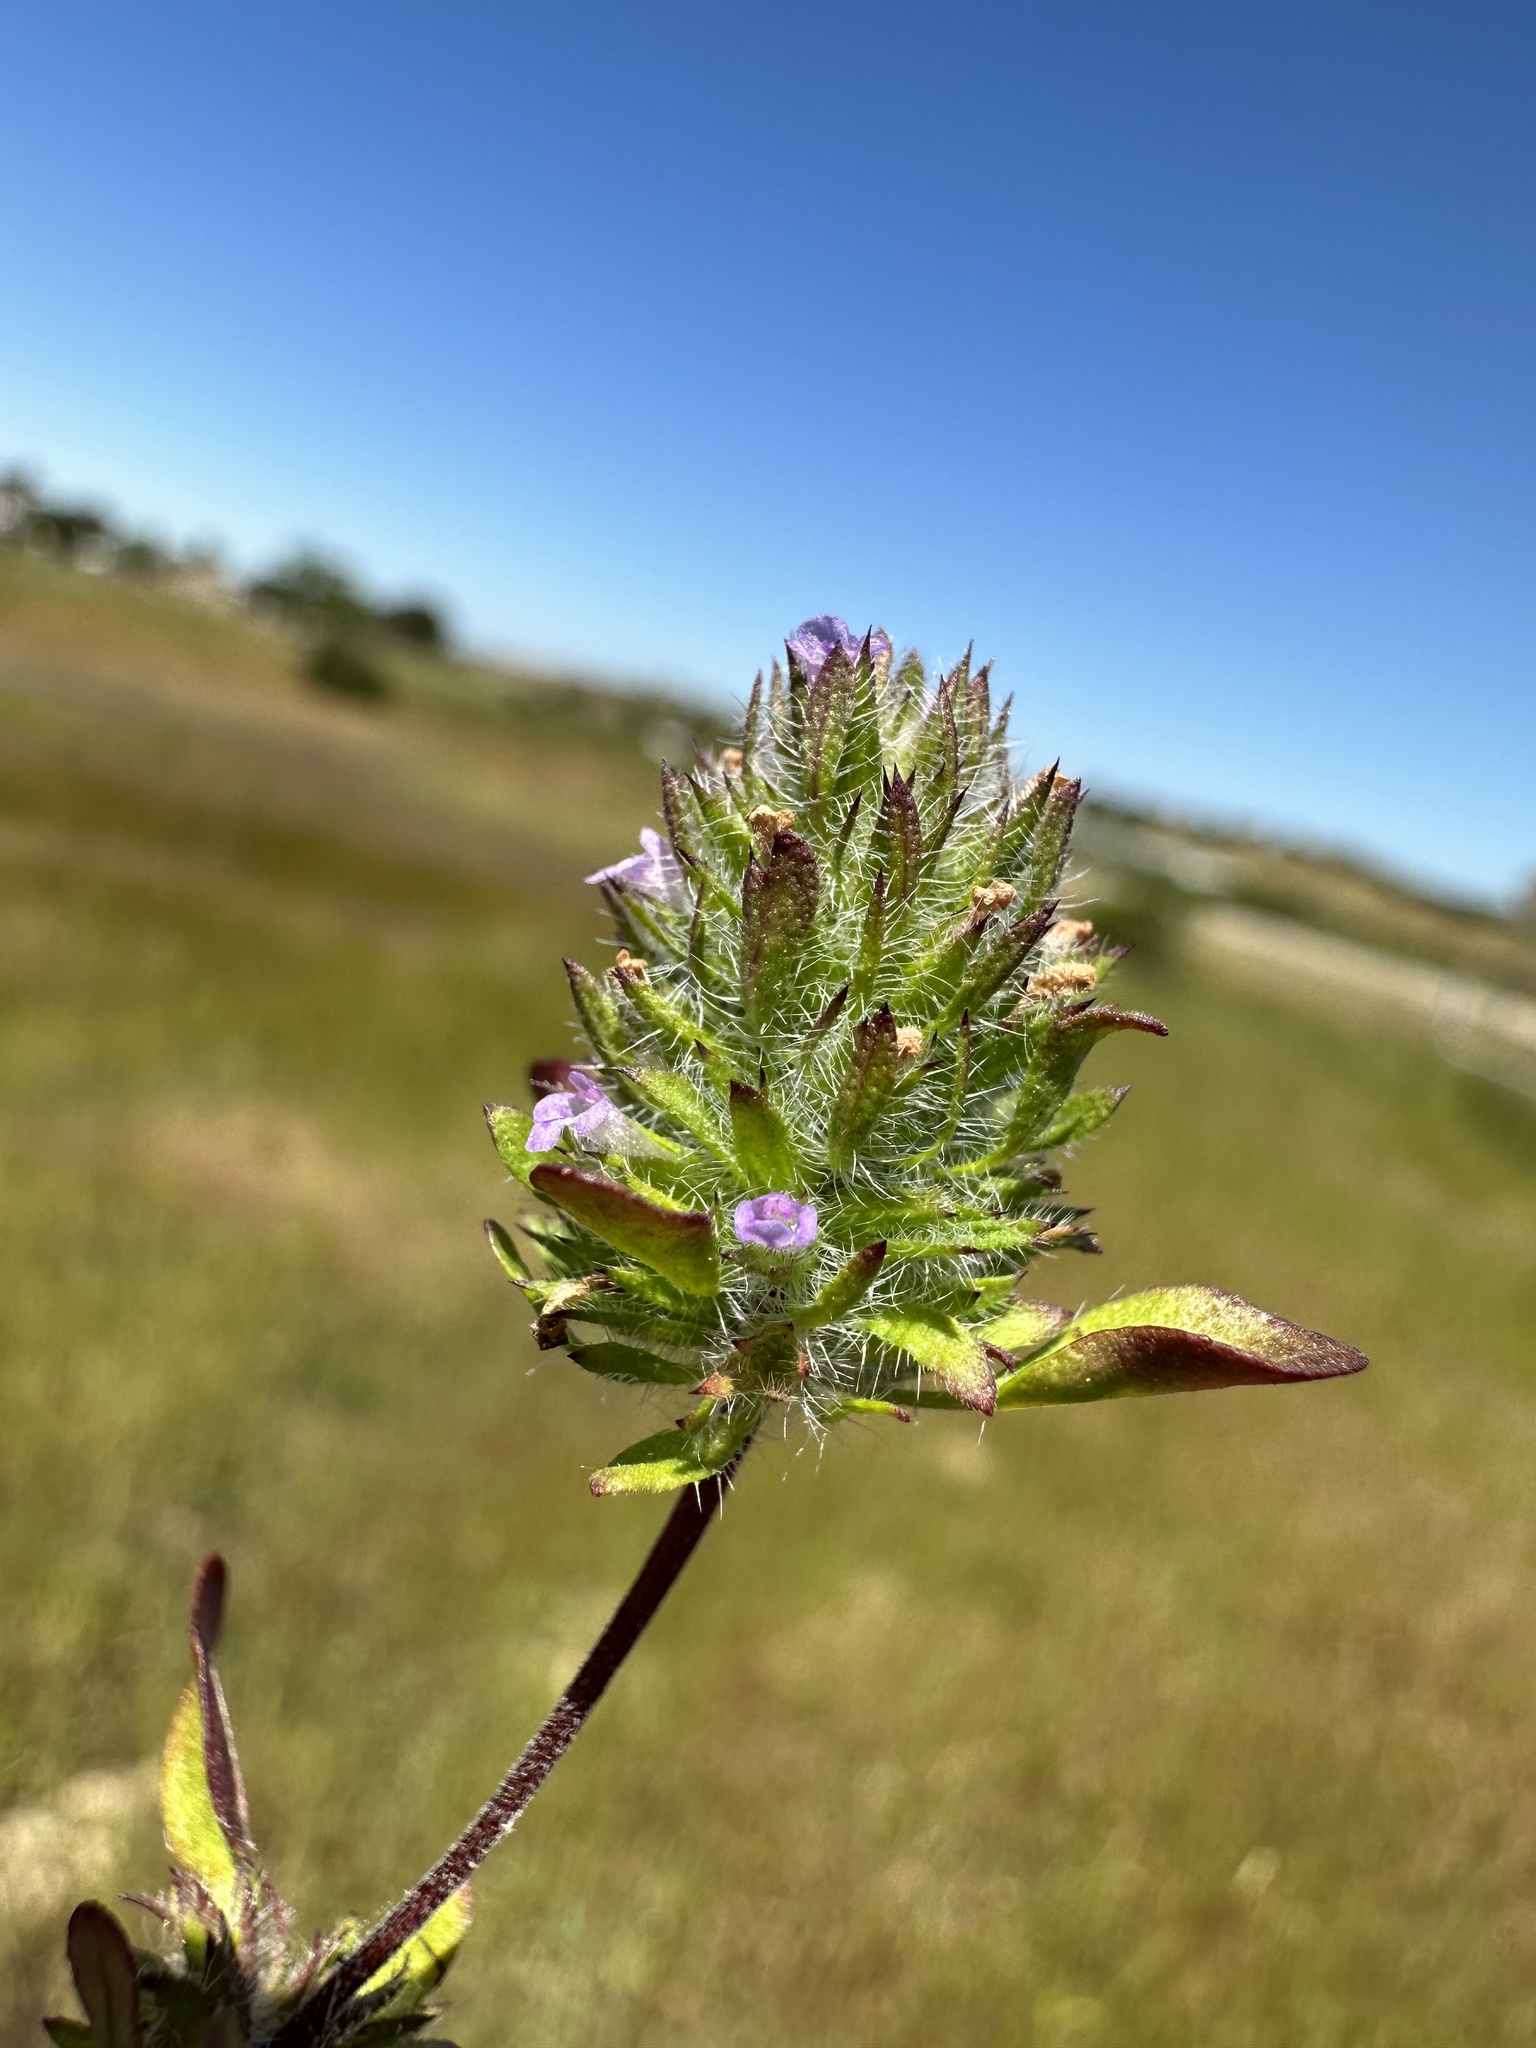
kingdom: Plantae
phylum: Tracheophyta
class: Magnoliopsida
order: Lamiales
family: Lamiaceae
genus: Pogogyne
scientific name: Pogogyne zizyphoroides
